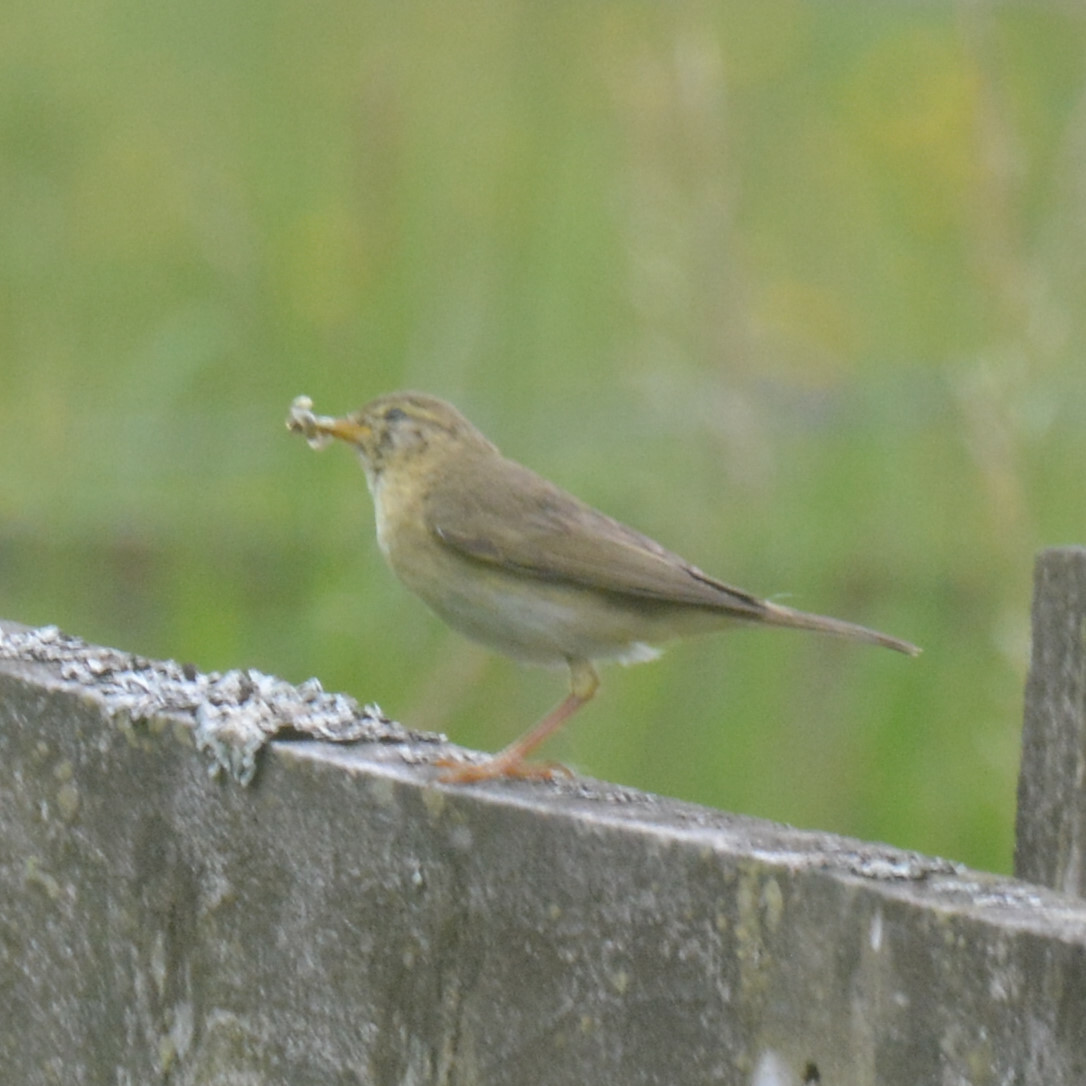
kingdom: Animalia
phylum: Chordata
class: Aves
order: Passeriformes
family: Phylloscopidae
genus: Phylloscopus
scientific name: Phylloscopus trochilus
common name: Willow warbler
